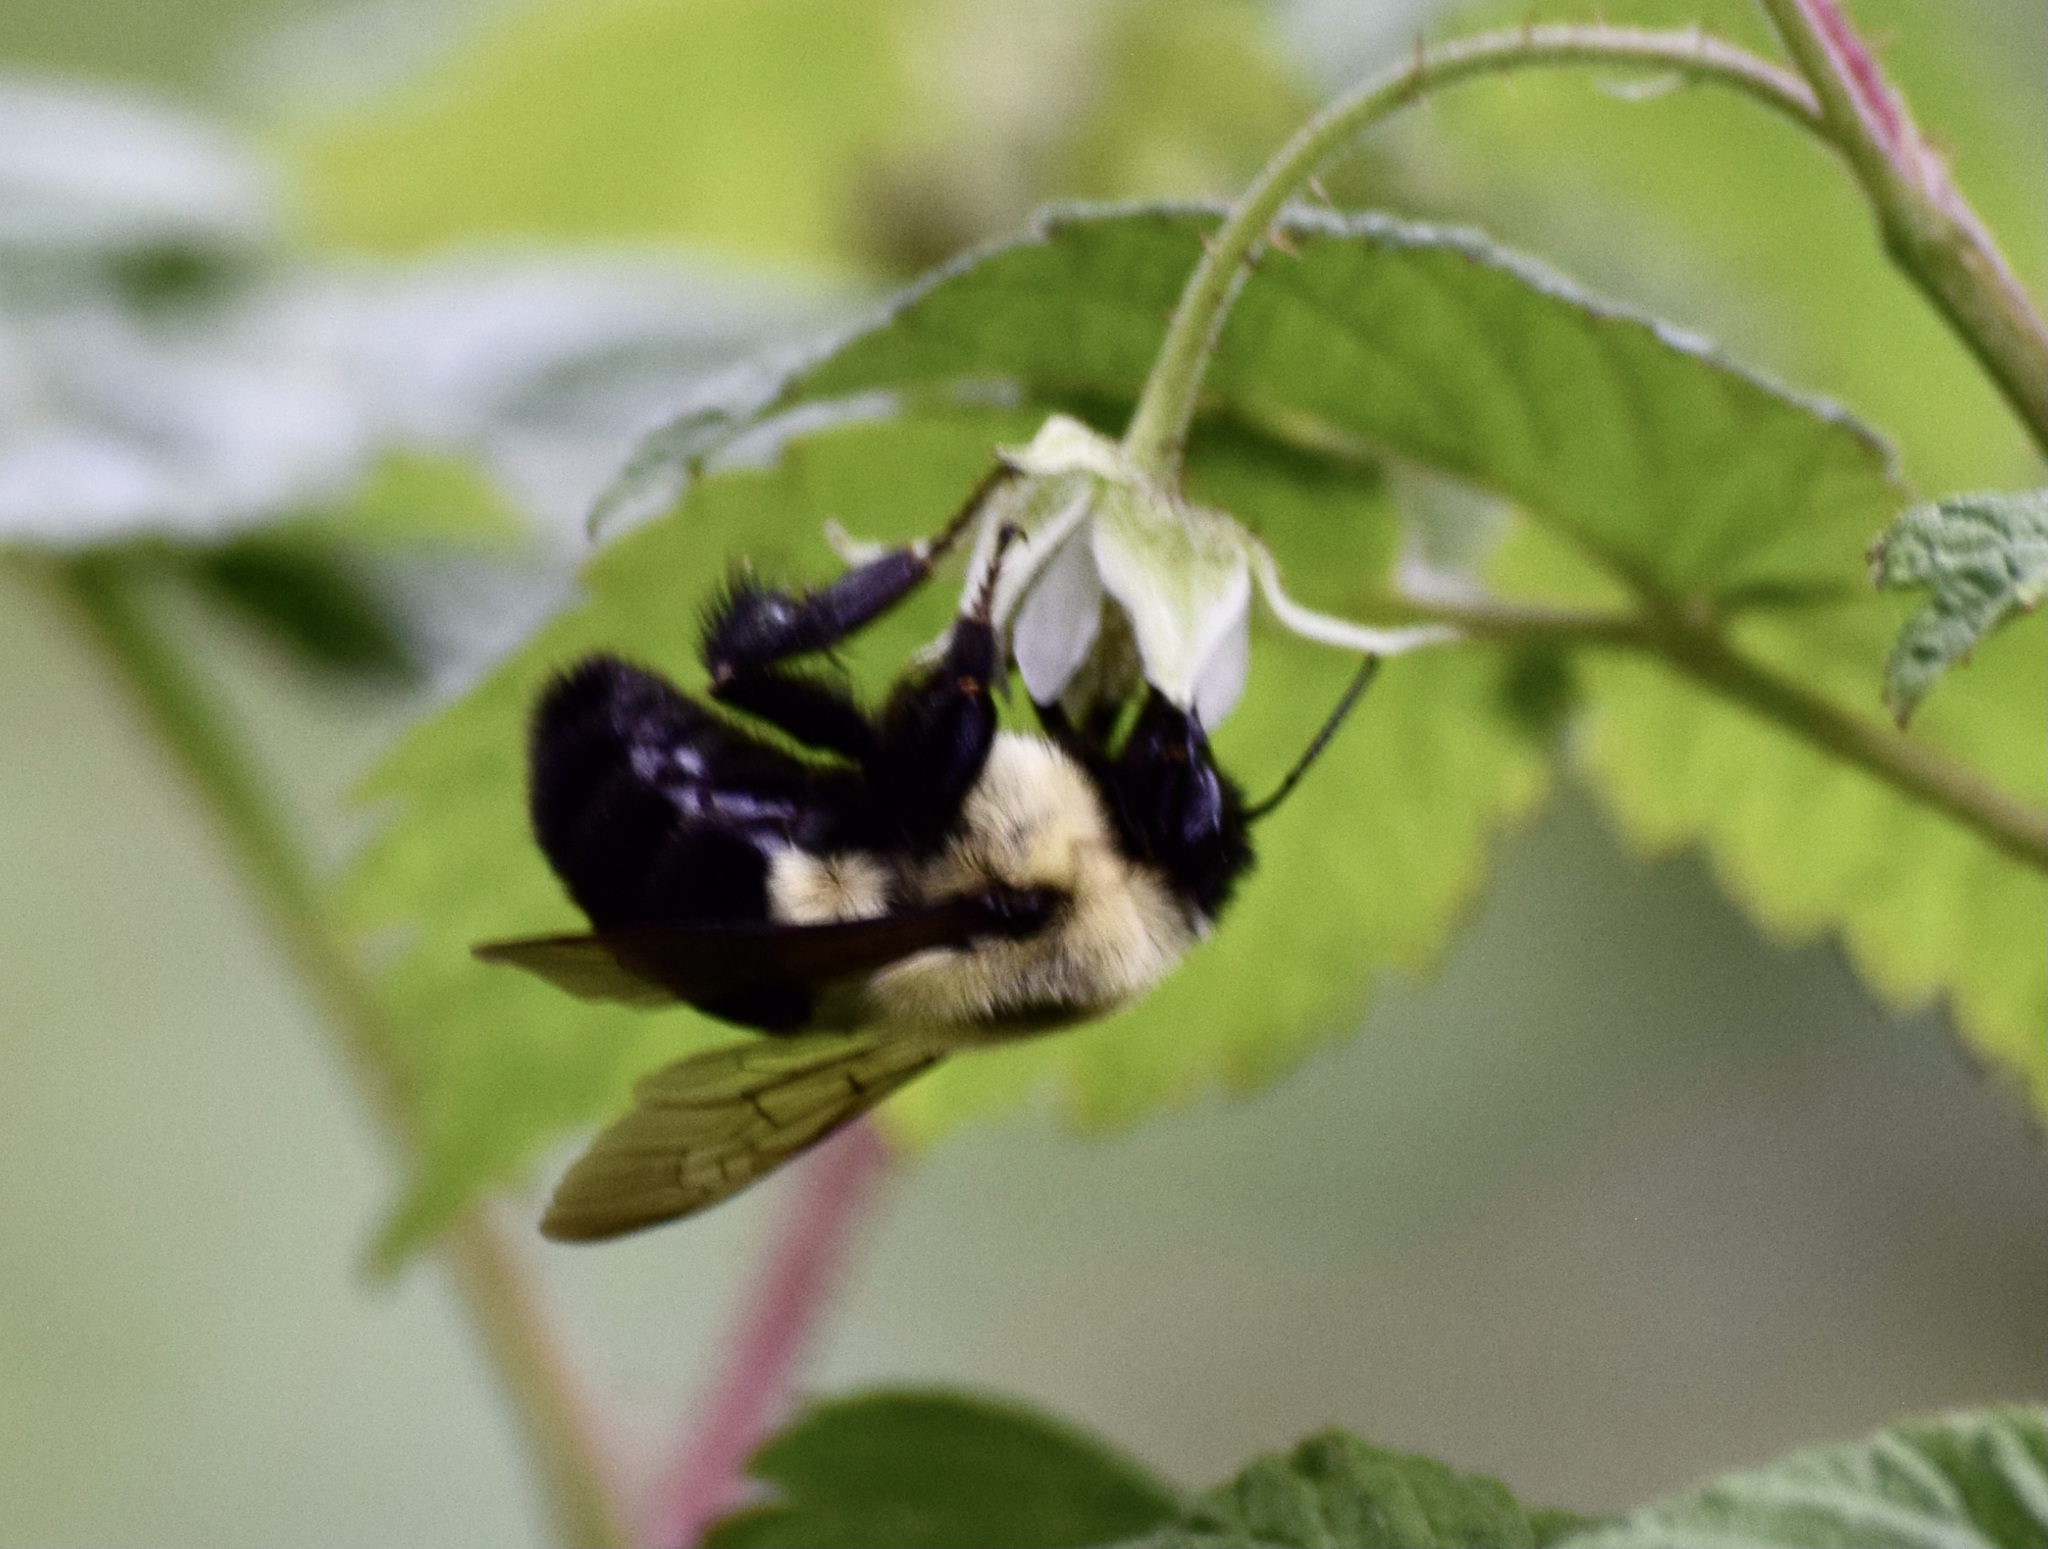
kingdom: Animalia
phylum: Arthropoda
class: Insecta
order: Hymenoptera
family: Apidae
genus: Bombus
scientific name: Bombus impatiens
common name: Common eastern bumble bee
